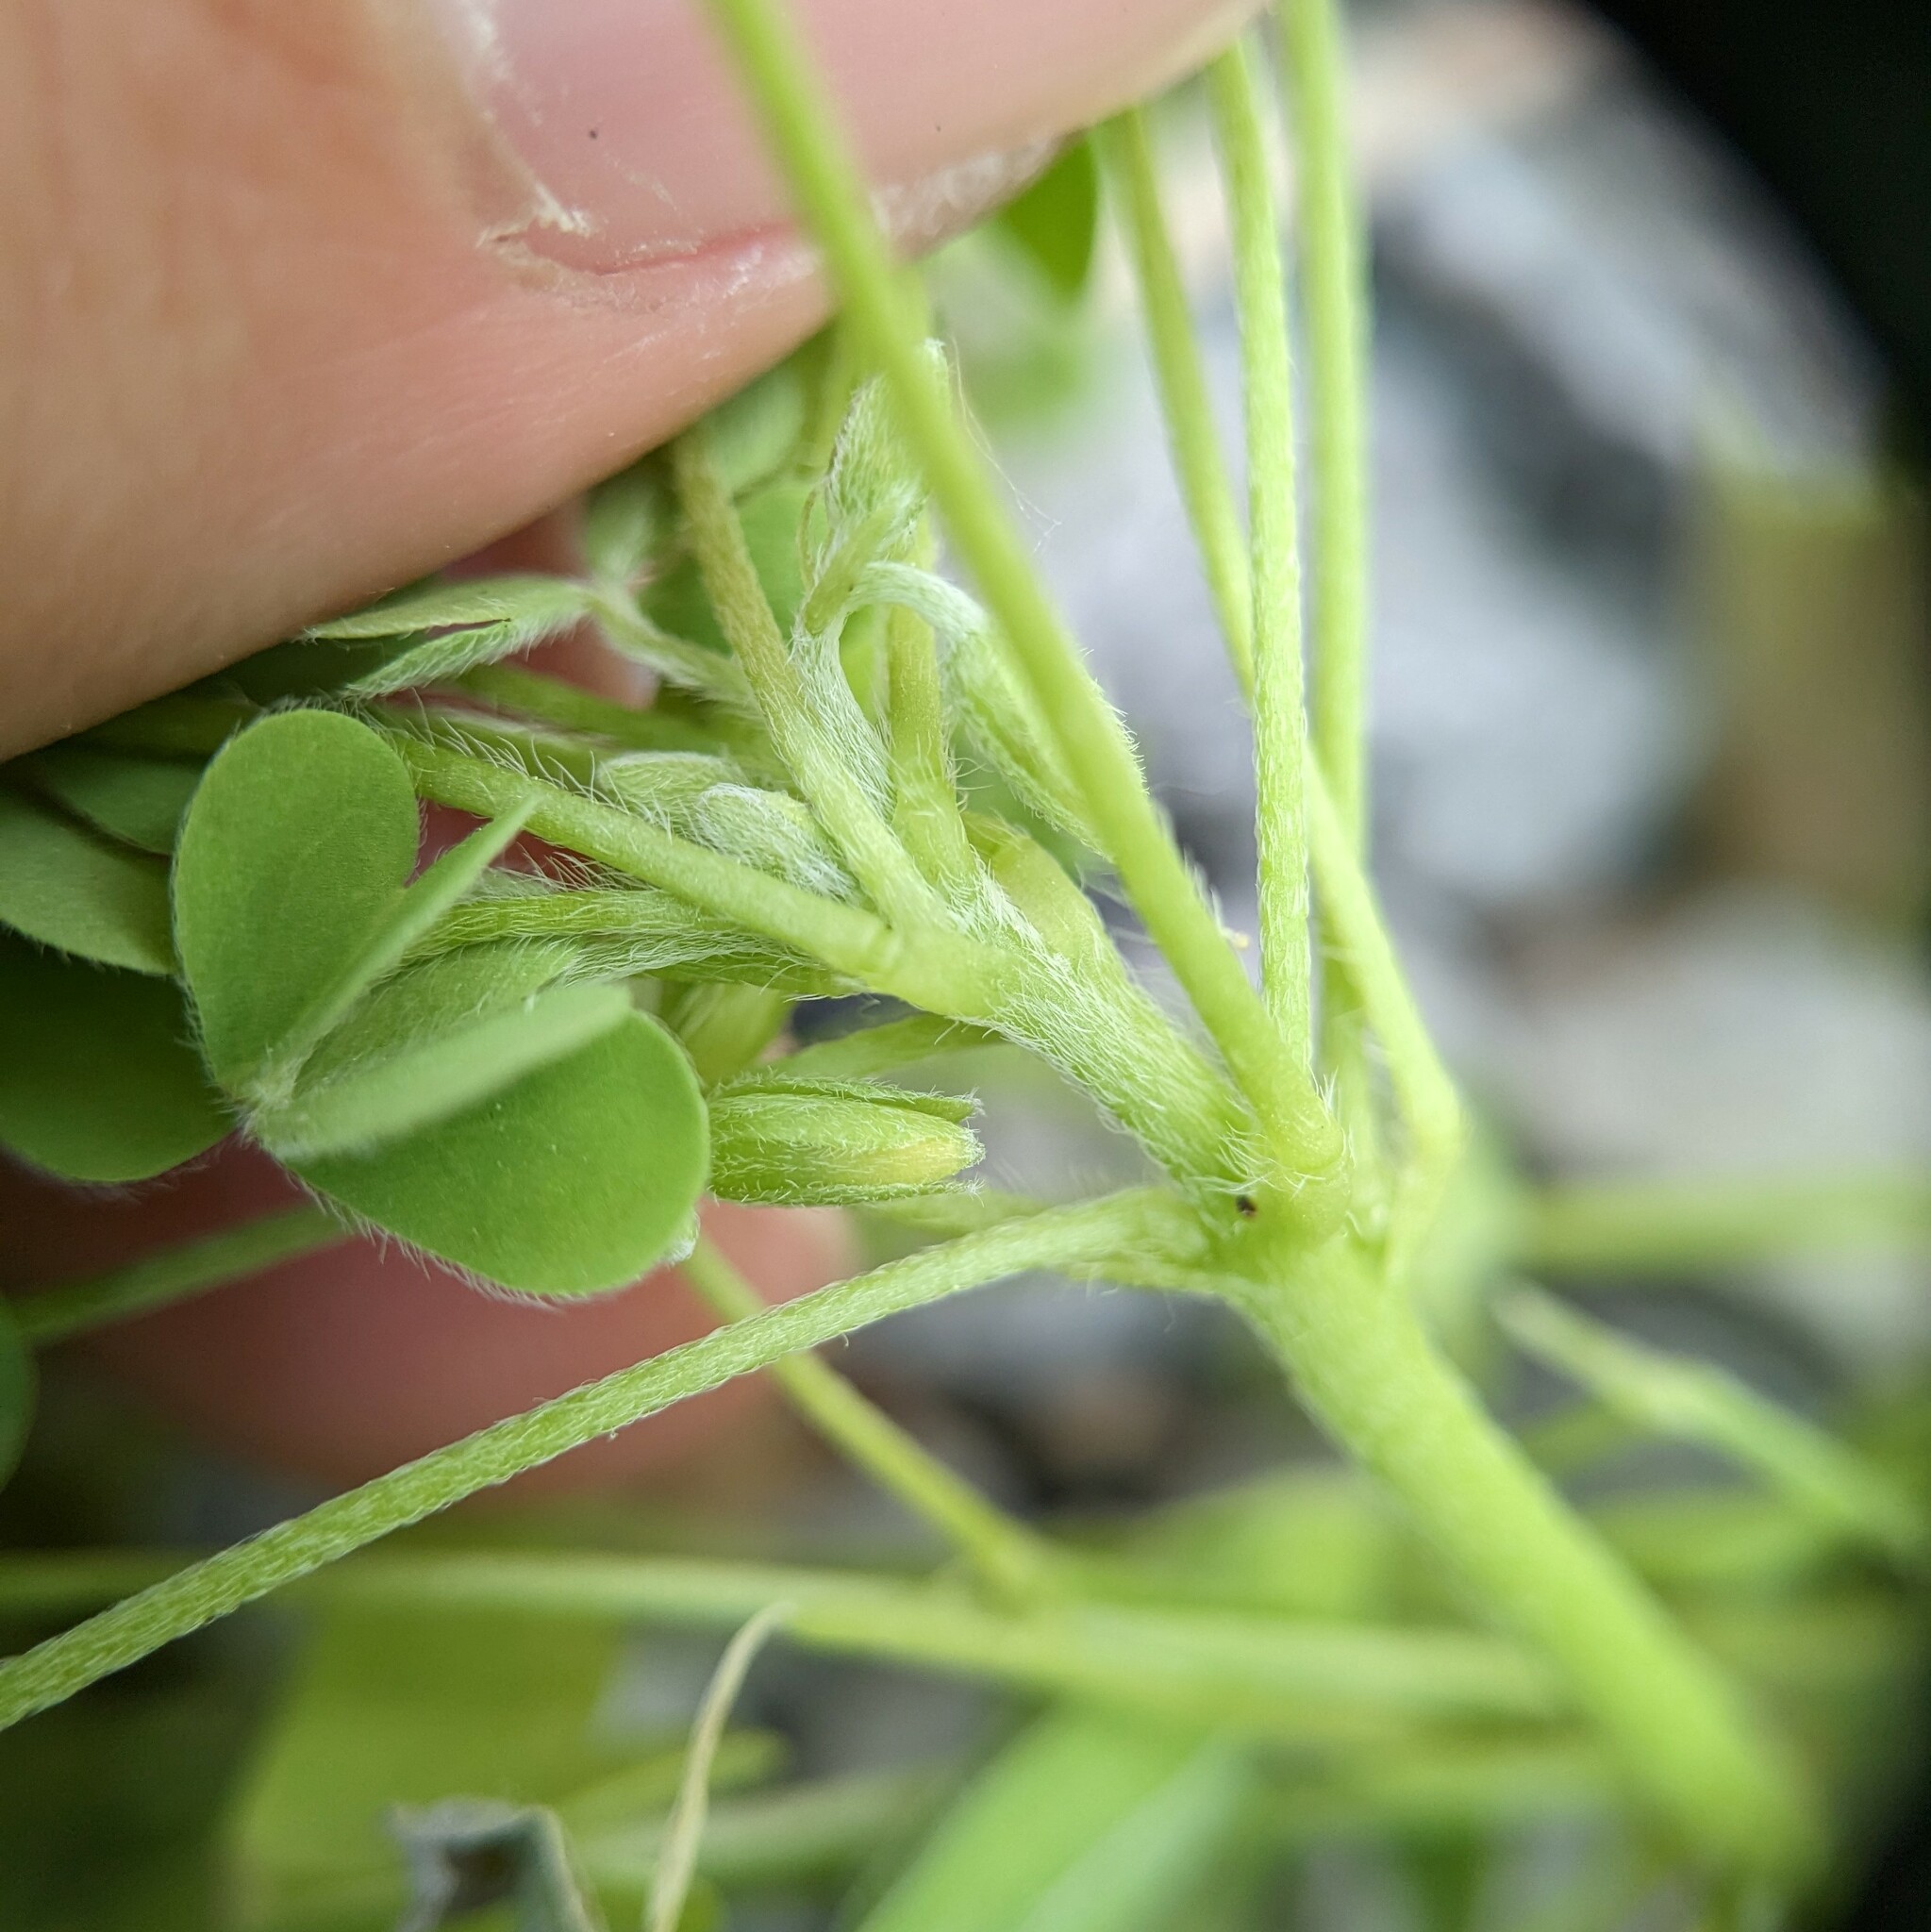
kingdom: Plantae
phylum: Tracheophyta
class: Magnoliopsida
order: Oxalidales
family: Oxalidaceae
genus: Oxalis
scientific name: Oxalis dillenii
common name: Sussex yellow-sorrel
